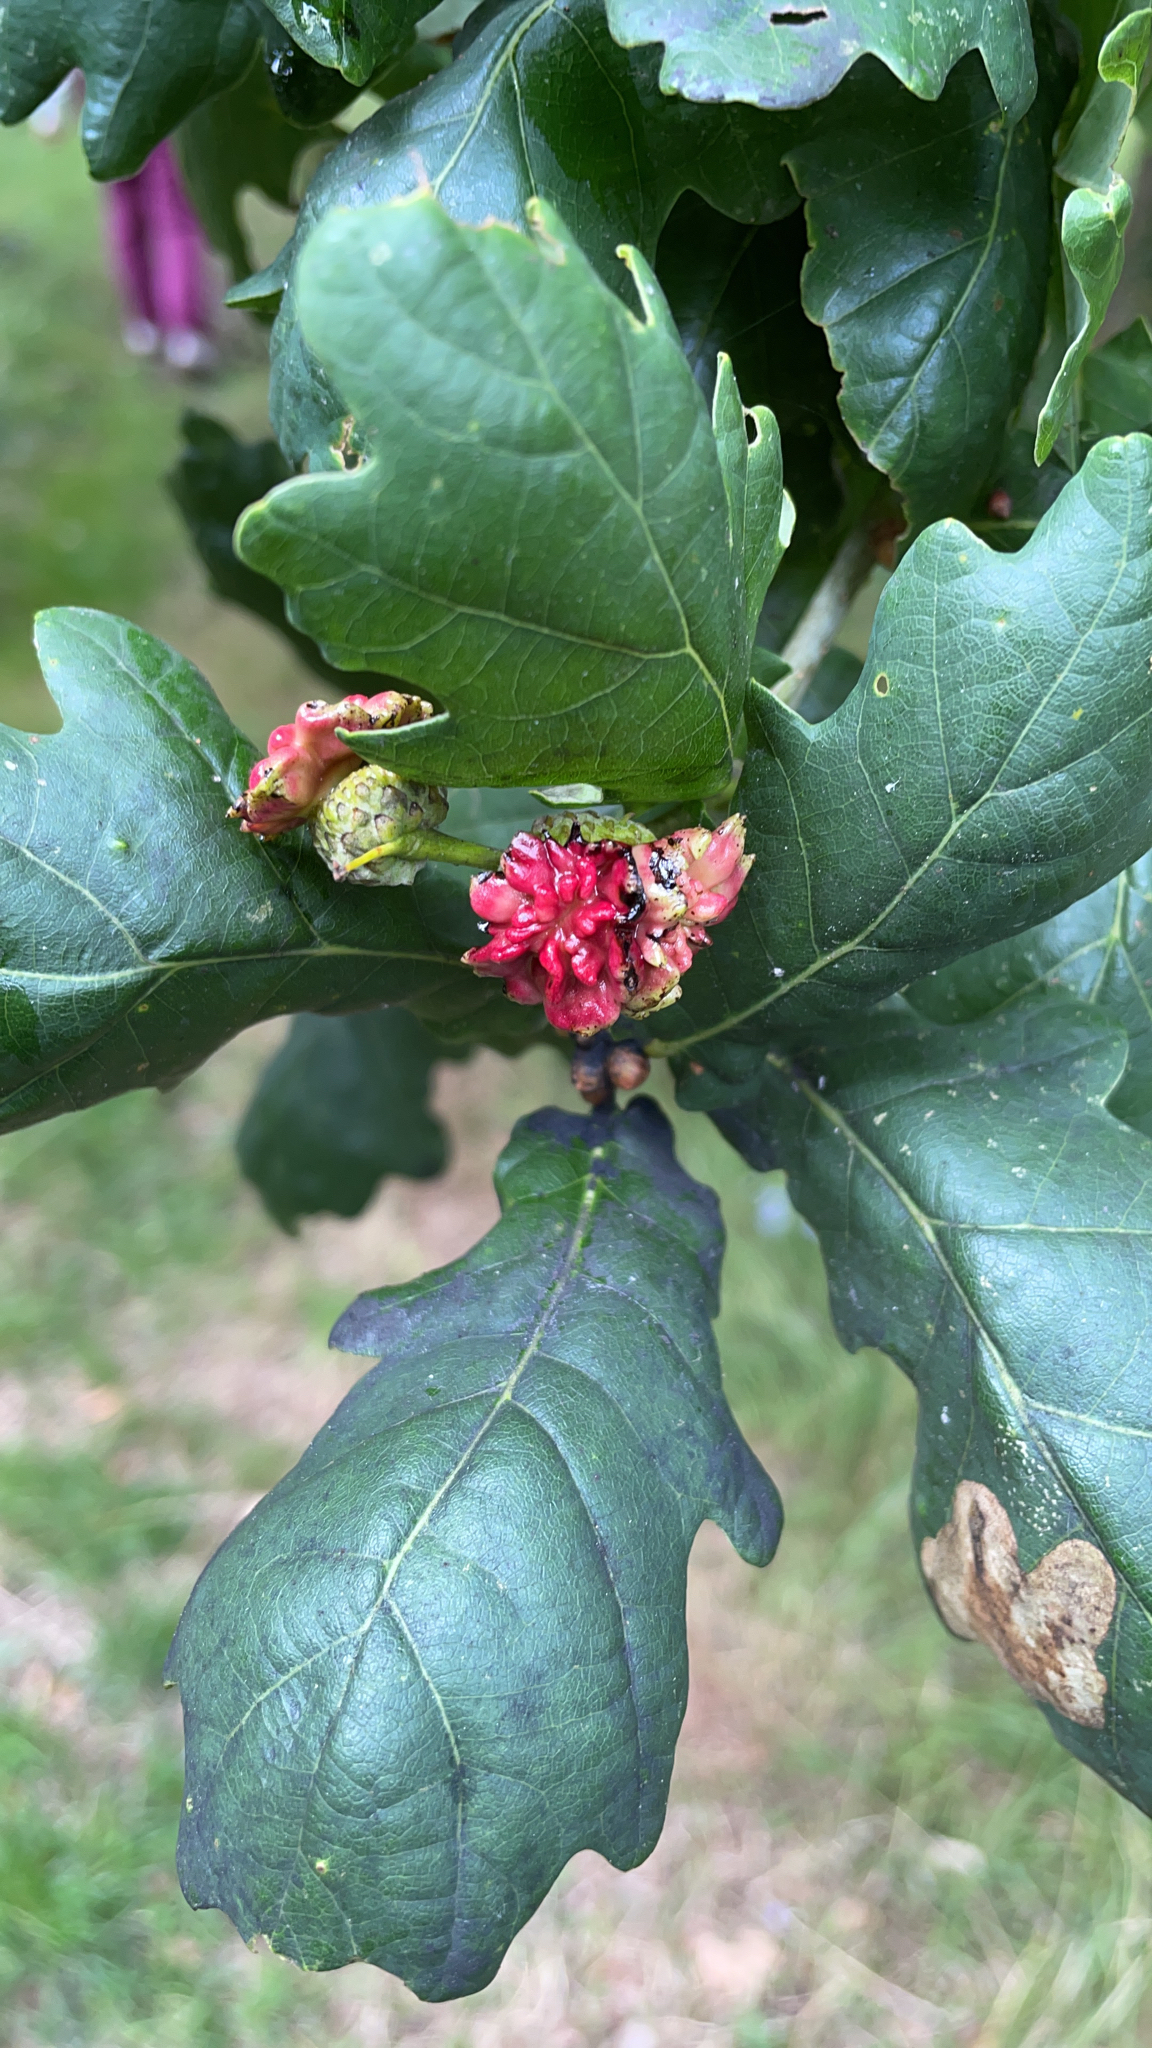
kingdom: Animalia
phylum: Arthropoda
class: Insecta
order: Hymenoptera
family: Cynipidae
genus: Andricus
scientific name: Andricus quercuscalicis
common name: Knopper gall
